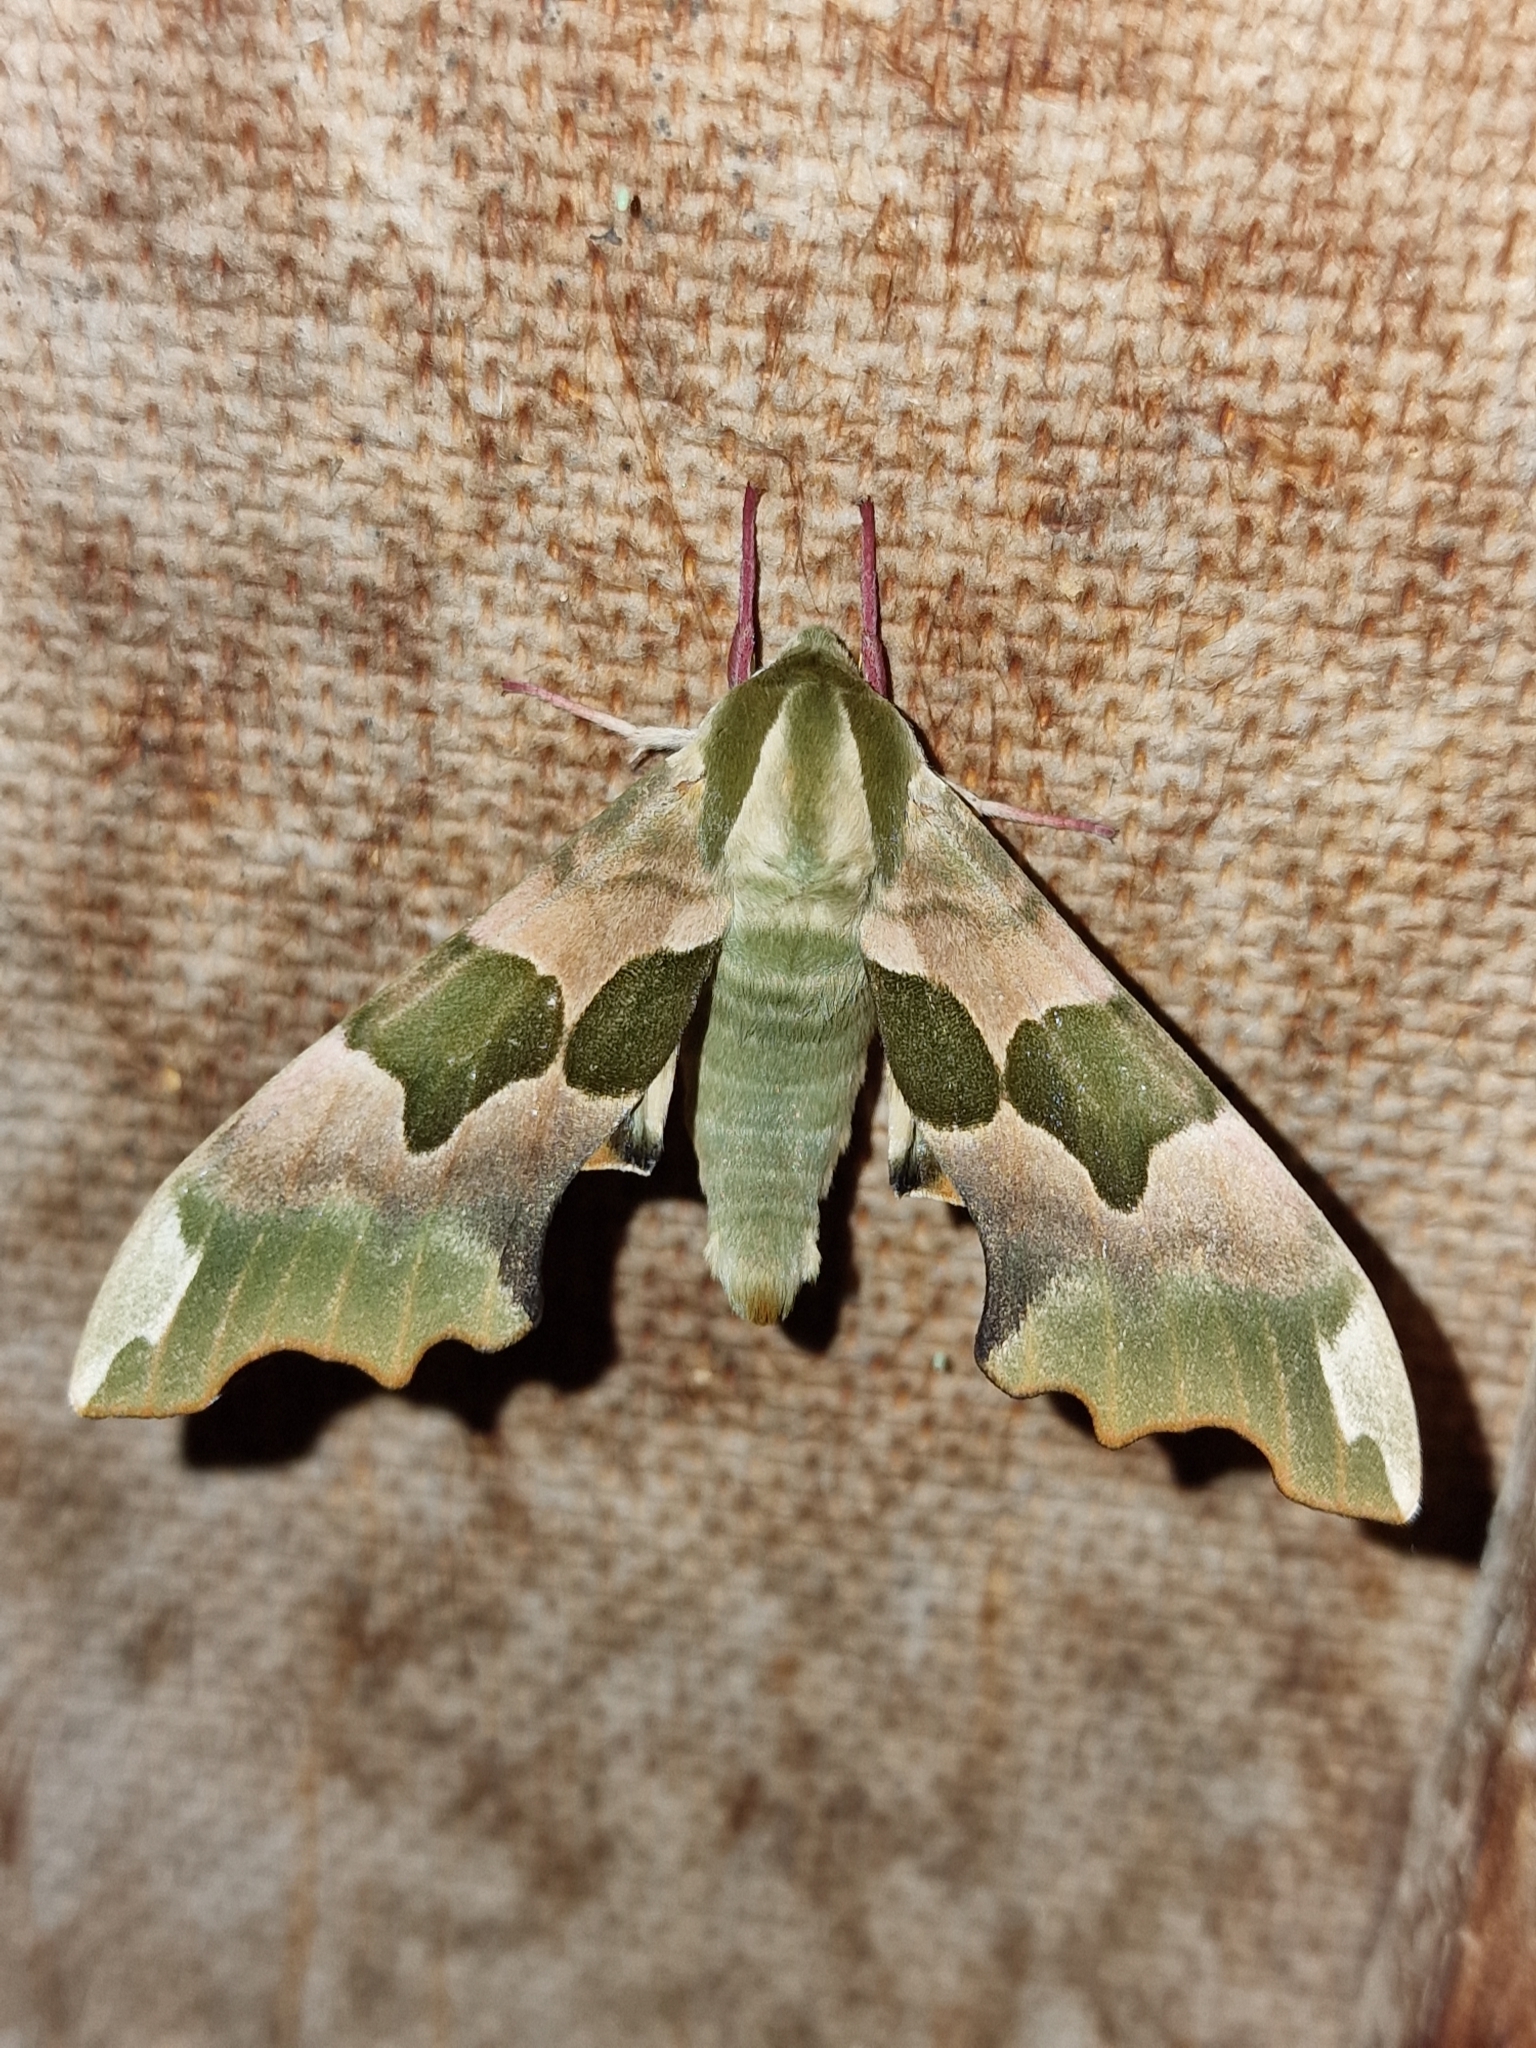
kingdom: Animalia
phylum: Arthropoda
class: Insecta
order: Lepidoptera
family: Sphingidae
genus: Mimas
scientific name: Mimas tiliae
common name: Lime hawk-moth
